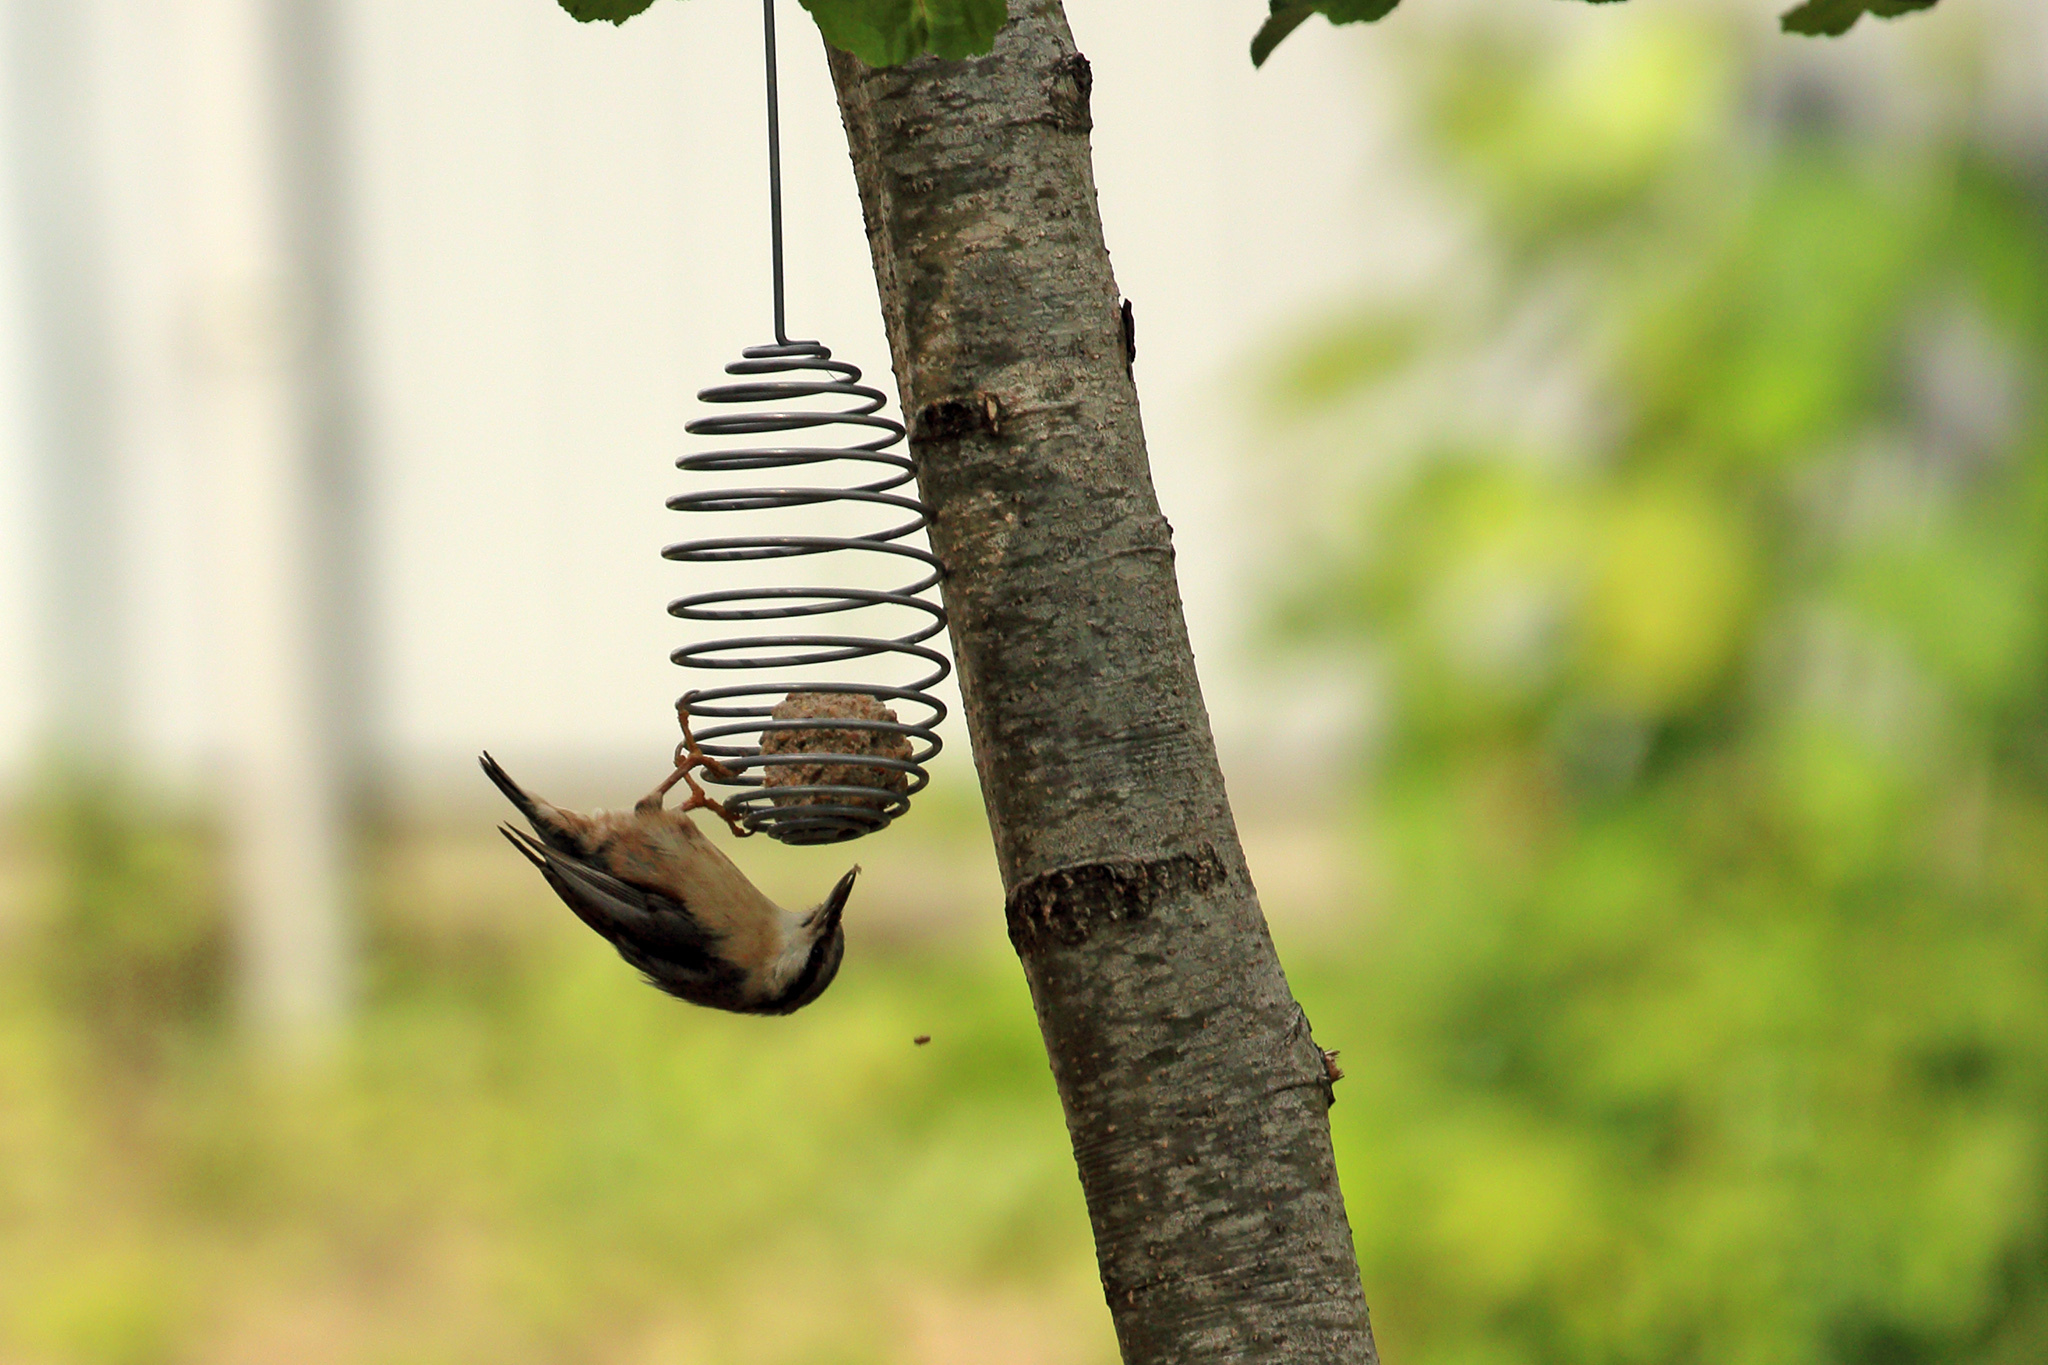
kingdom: Animalia
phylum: Chordata
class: Aves
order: Passeriformes
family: Sittidae
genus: Sitta
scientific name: Sitta europaea
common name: Eurasian nuthatch
